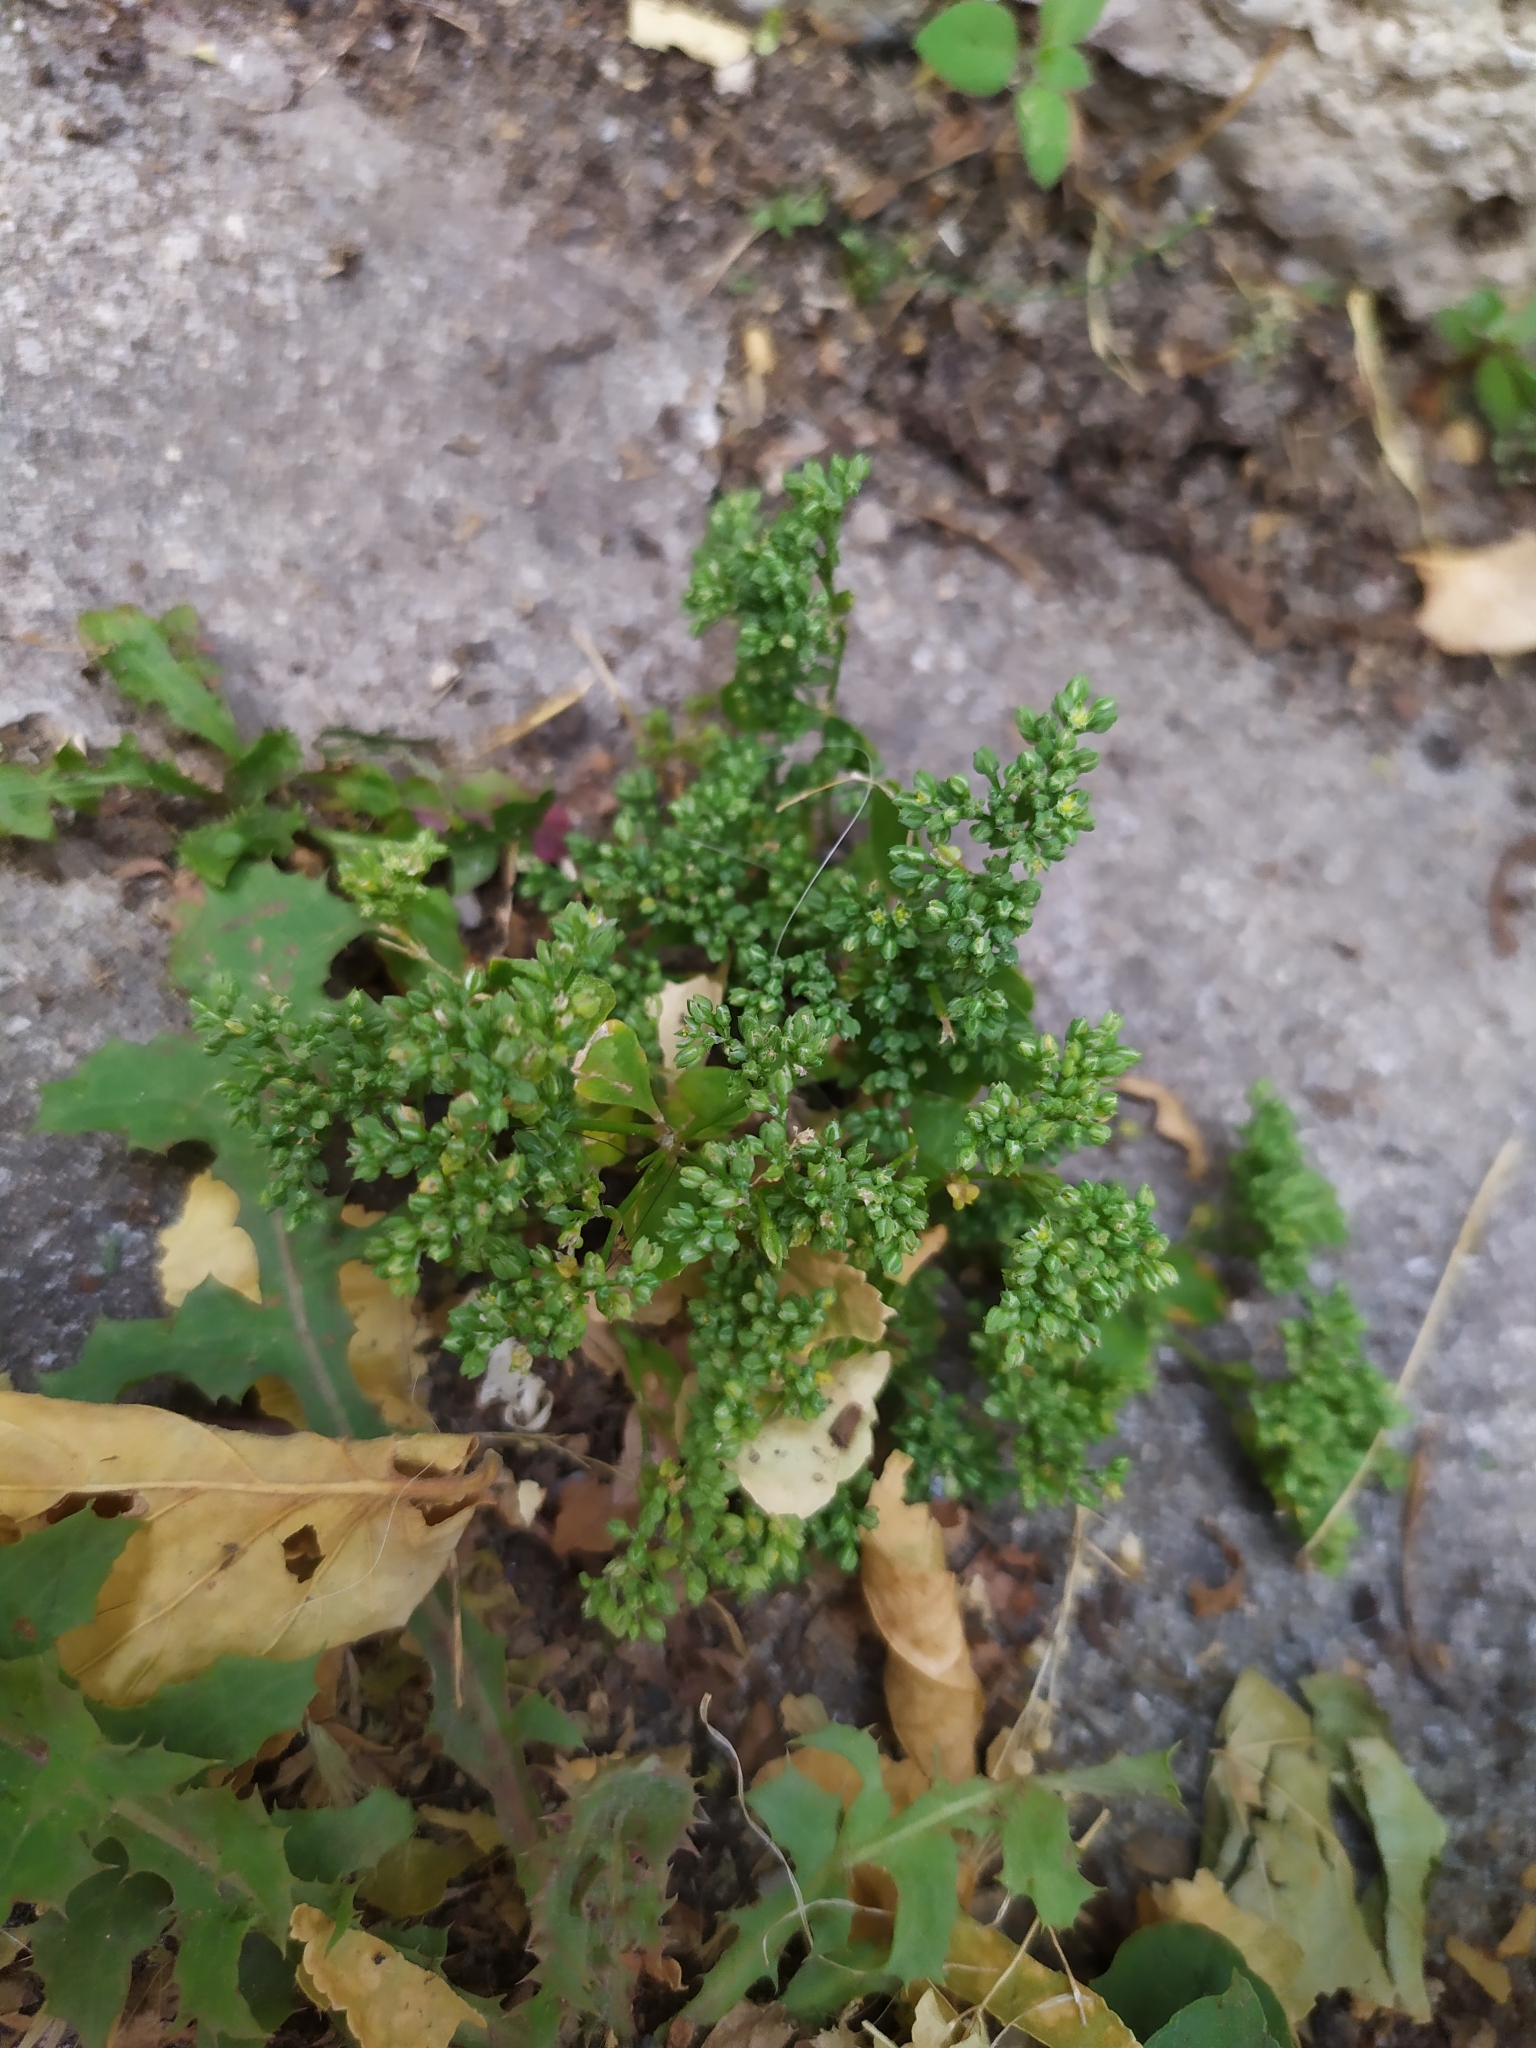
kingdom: Plantae
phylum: Tracheophyta
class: Magnoliopsida
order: Caryophyllales
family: Caryophyllaceae
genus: Polycarpon
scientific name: Polycarpon tetraphyllum
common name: Four-leaved all-seed
